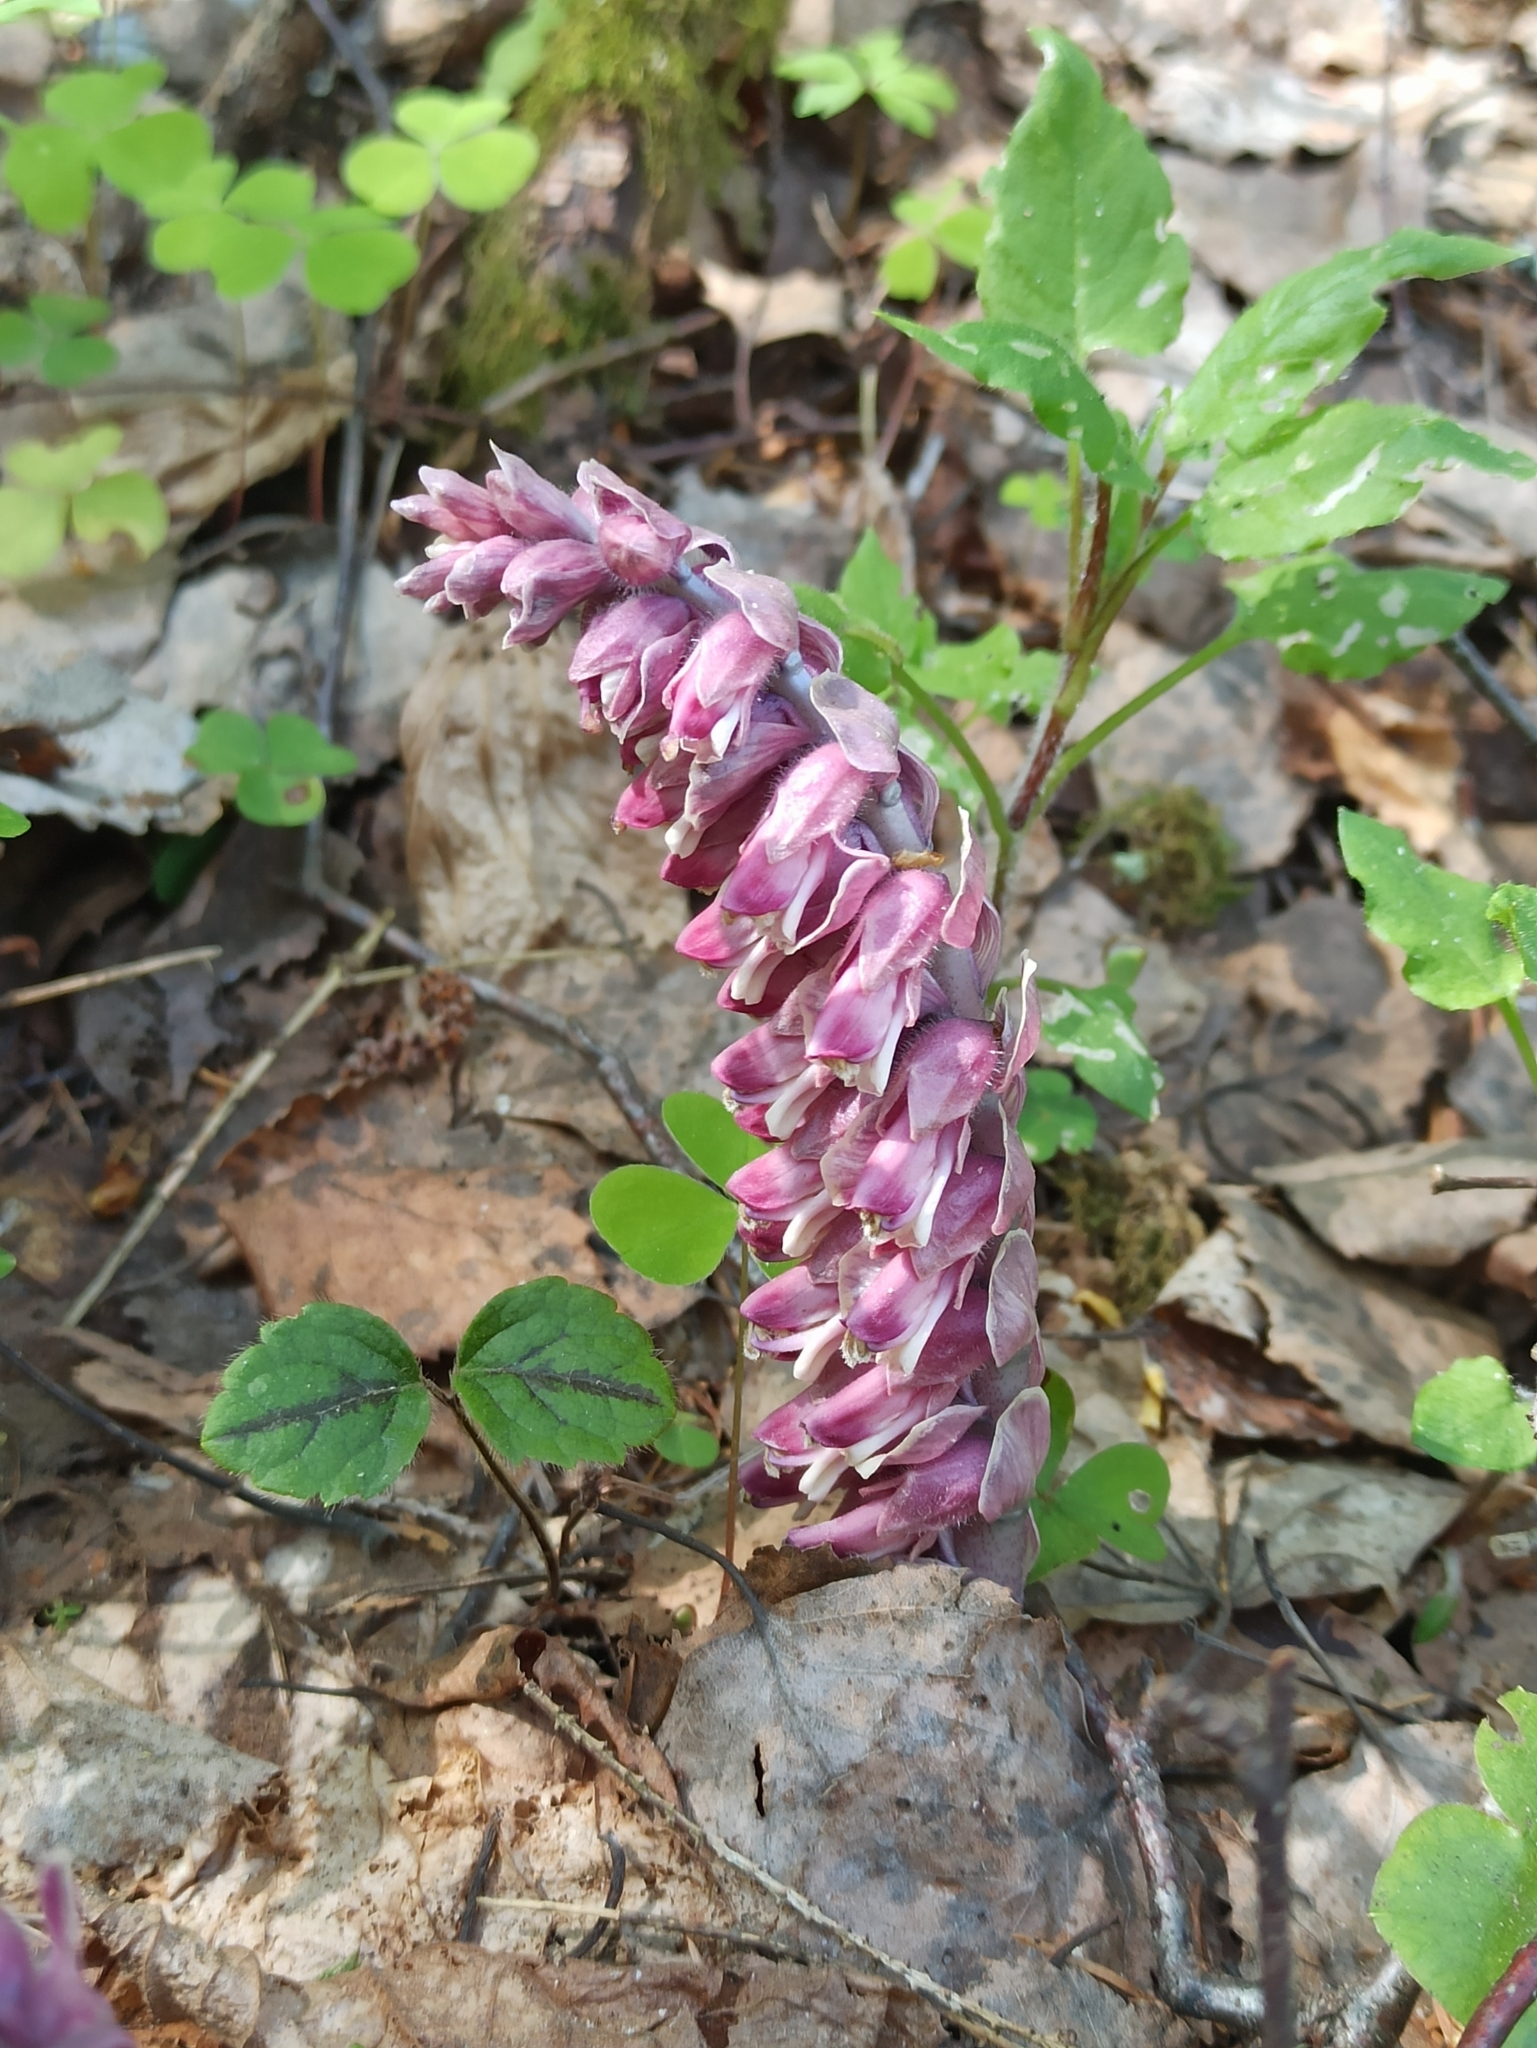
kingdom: Plantae
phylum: Tracheophyta
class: Magnoliopsida
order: Lamiales
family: Orobanchaceae
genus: Lathraea
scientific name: Lathraea squamaria
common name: Toothwort
